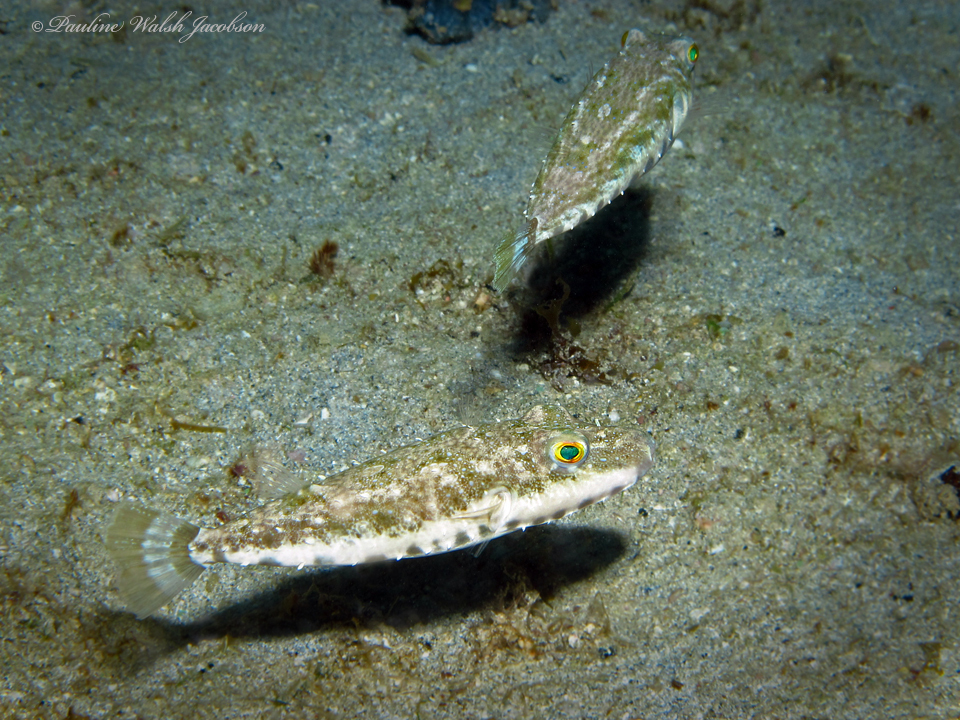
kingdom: Animalia
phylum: Chordata
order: Tetraodontiformes
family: Tetraodontidae
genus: Sphoeroides
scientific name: Sphoeroides spengleri
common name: Bandtail puffer
